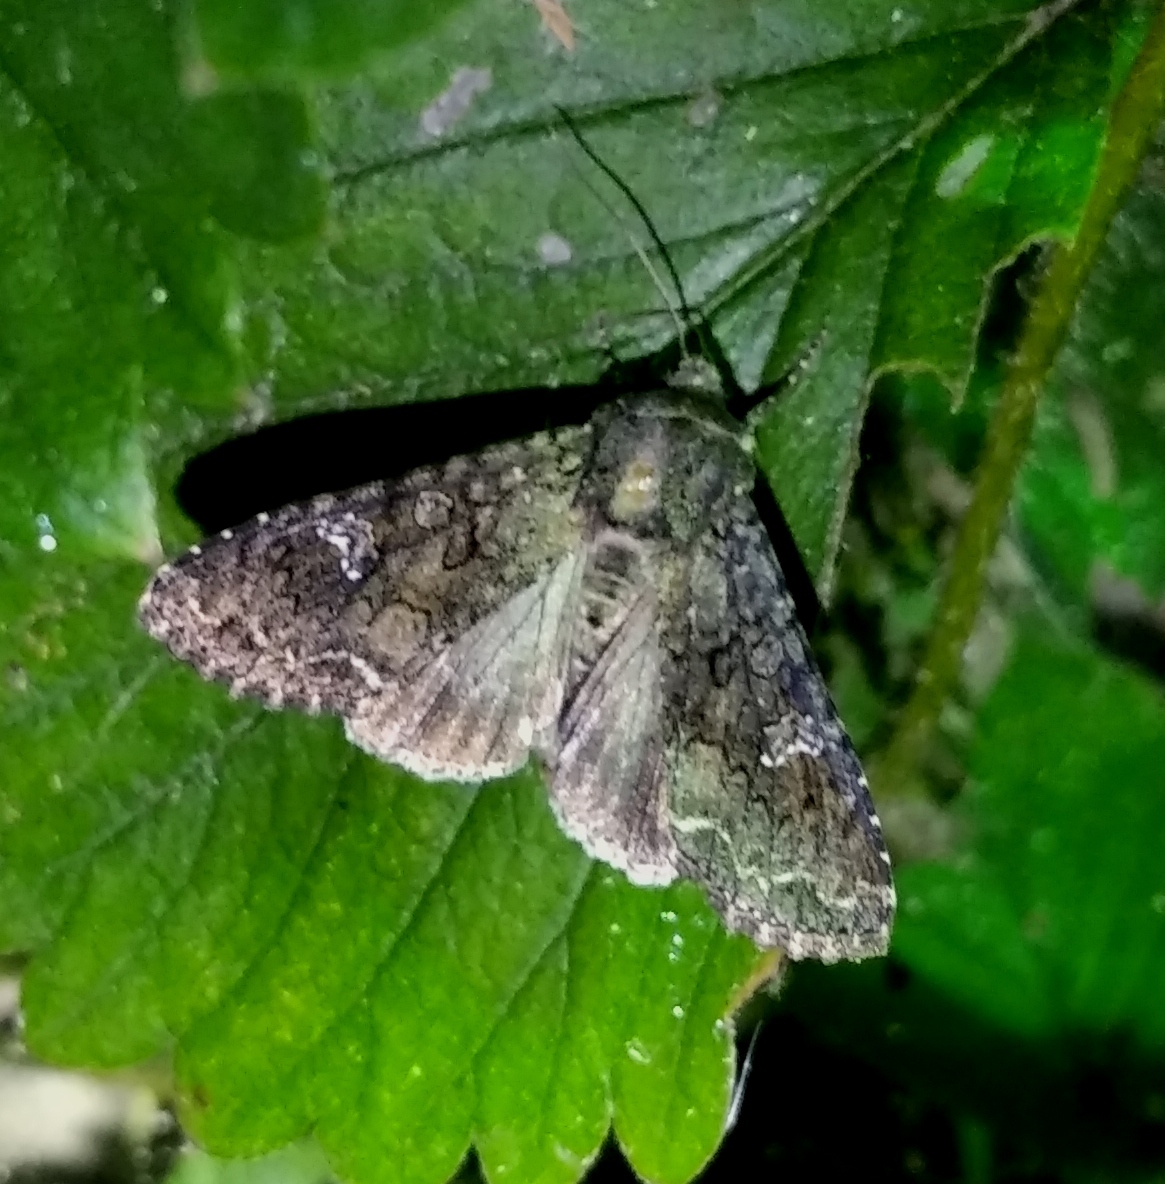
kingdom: Animalia
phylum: Arthropoda
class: Insecta
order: Lepidoptera
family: Noctuidae
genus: Mamestra
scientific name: Mamestra brassicae
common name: Cabbage moth
